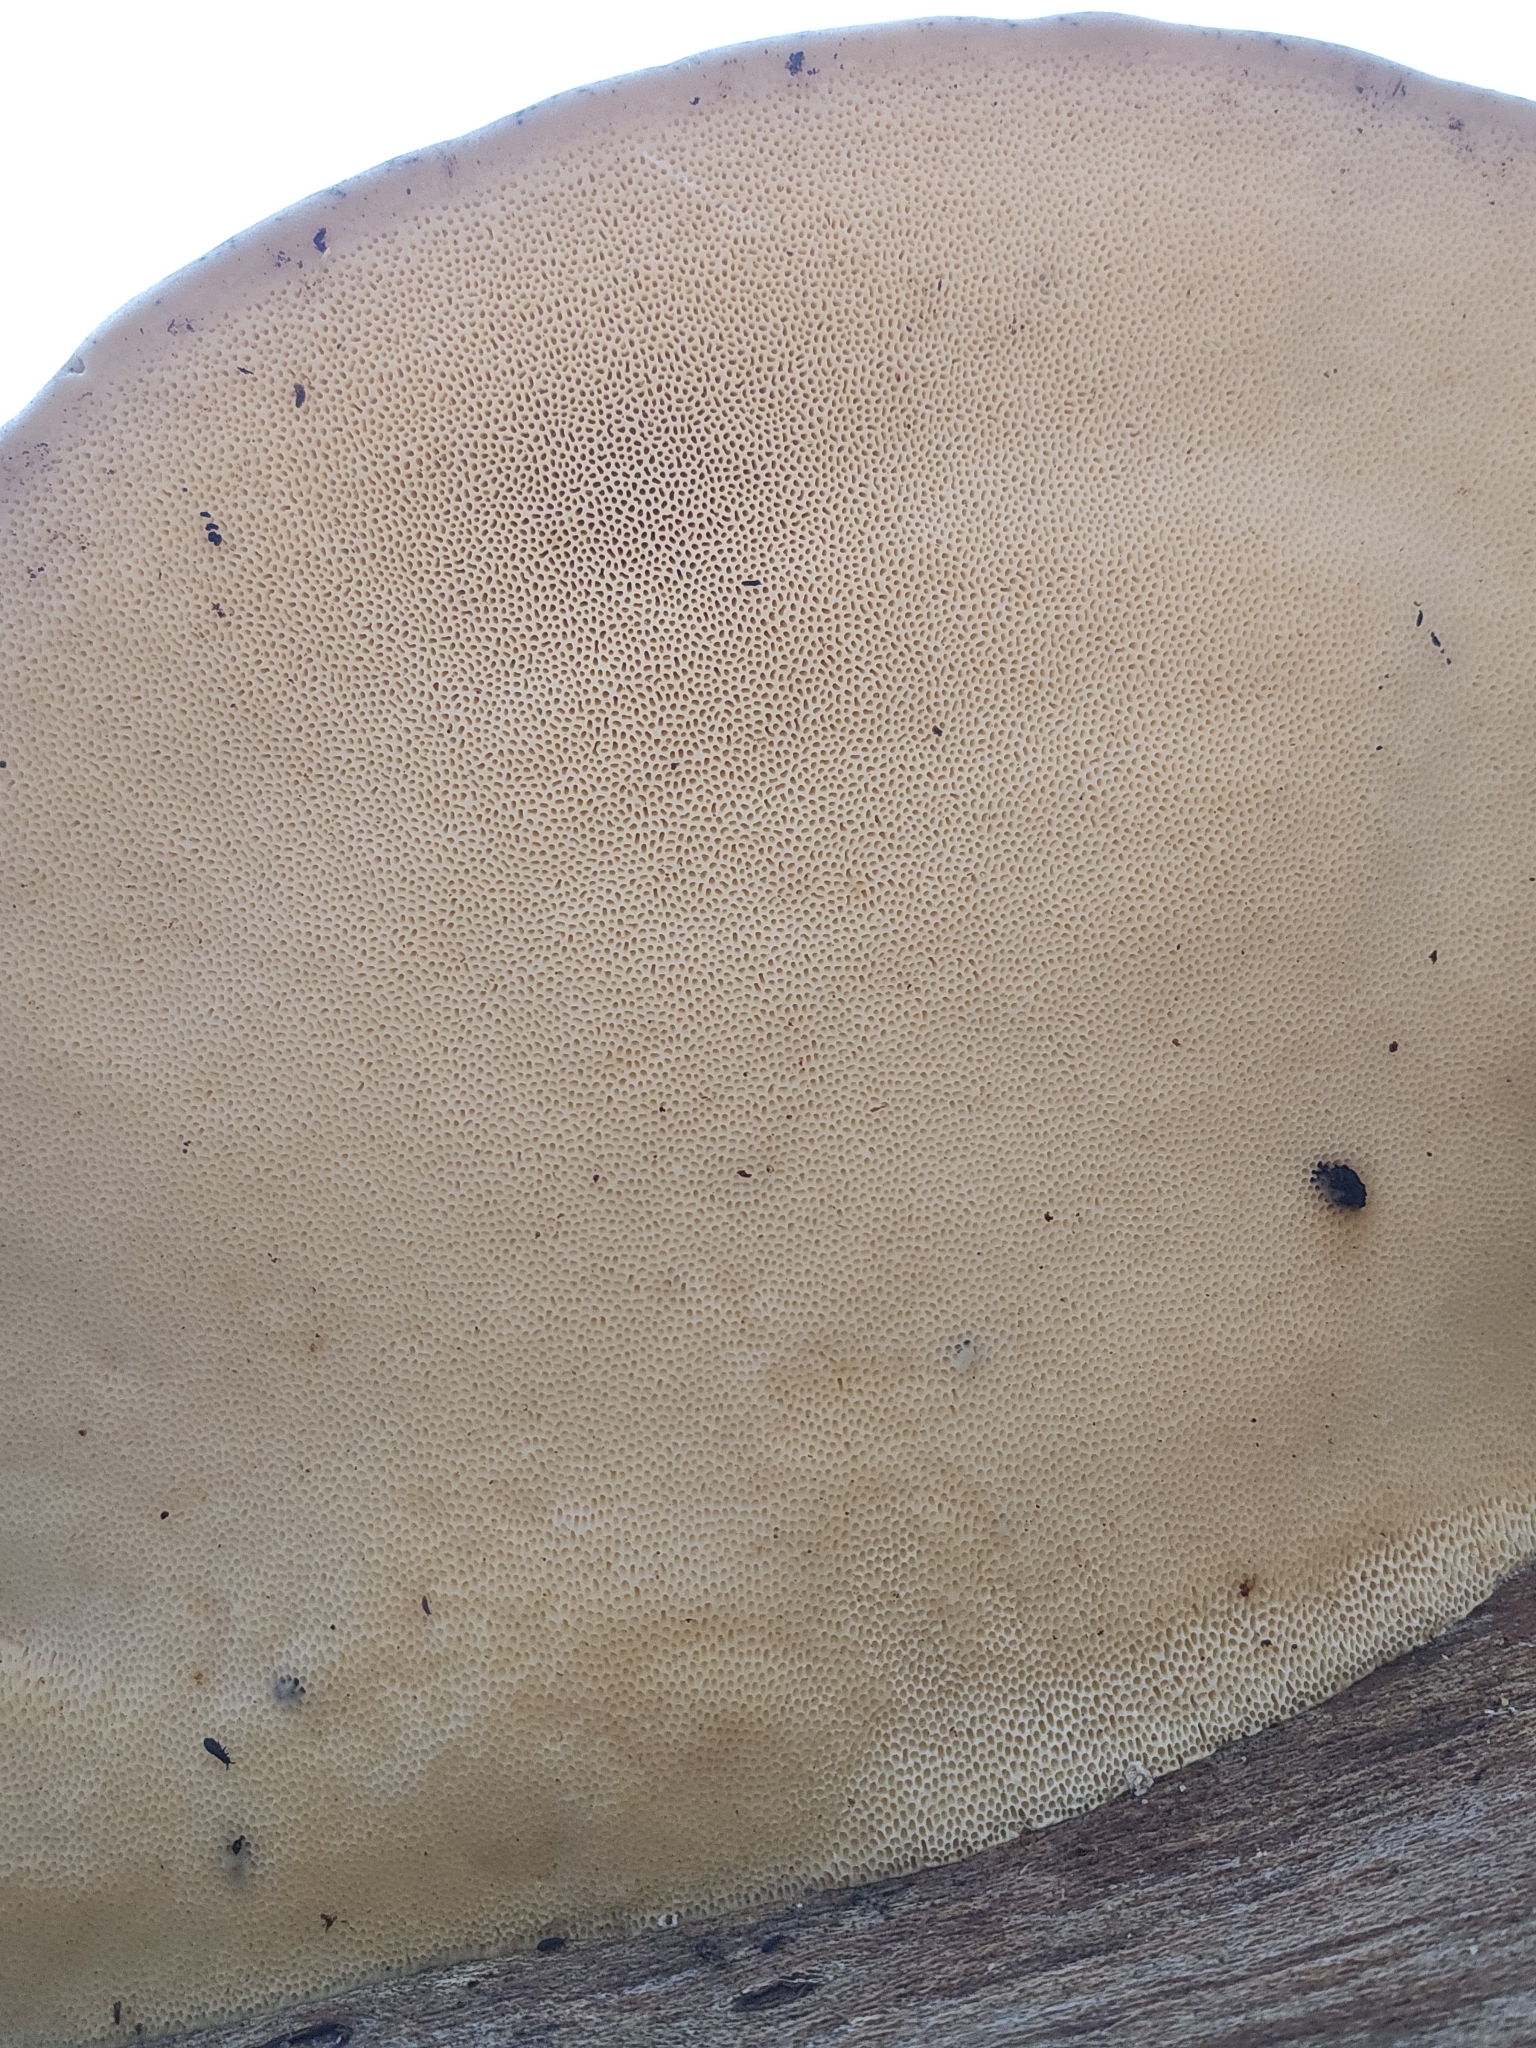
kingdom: Fungi
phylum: Basidiomycota
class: Agaricomycetes
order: Polyporales
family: Polyporaceae
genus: Trametes
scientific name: Trametes lactinea
